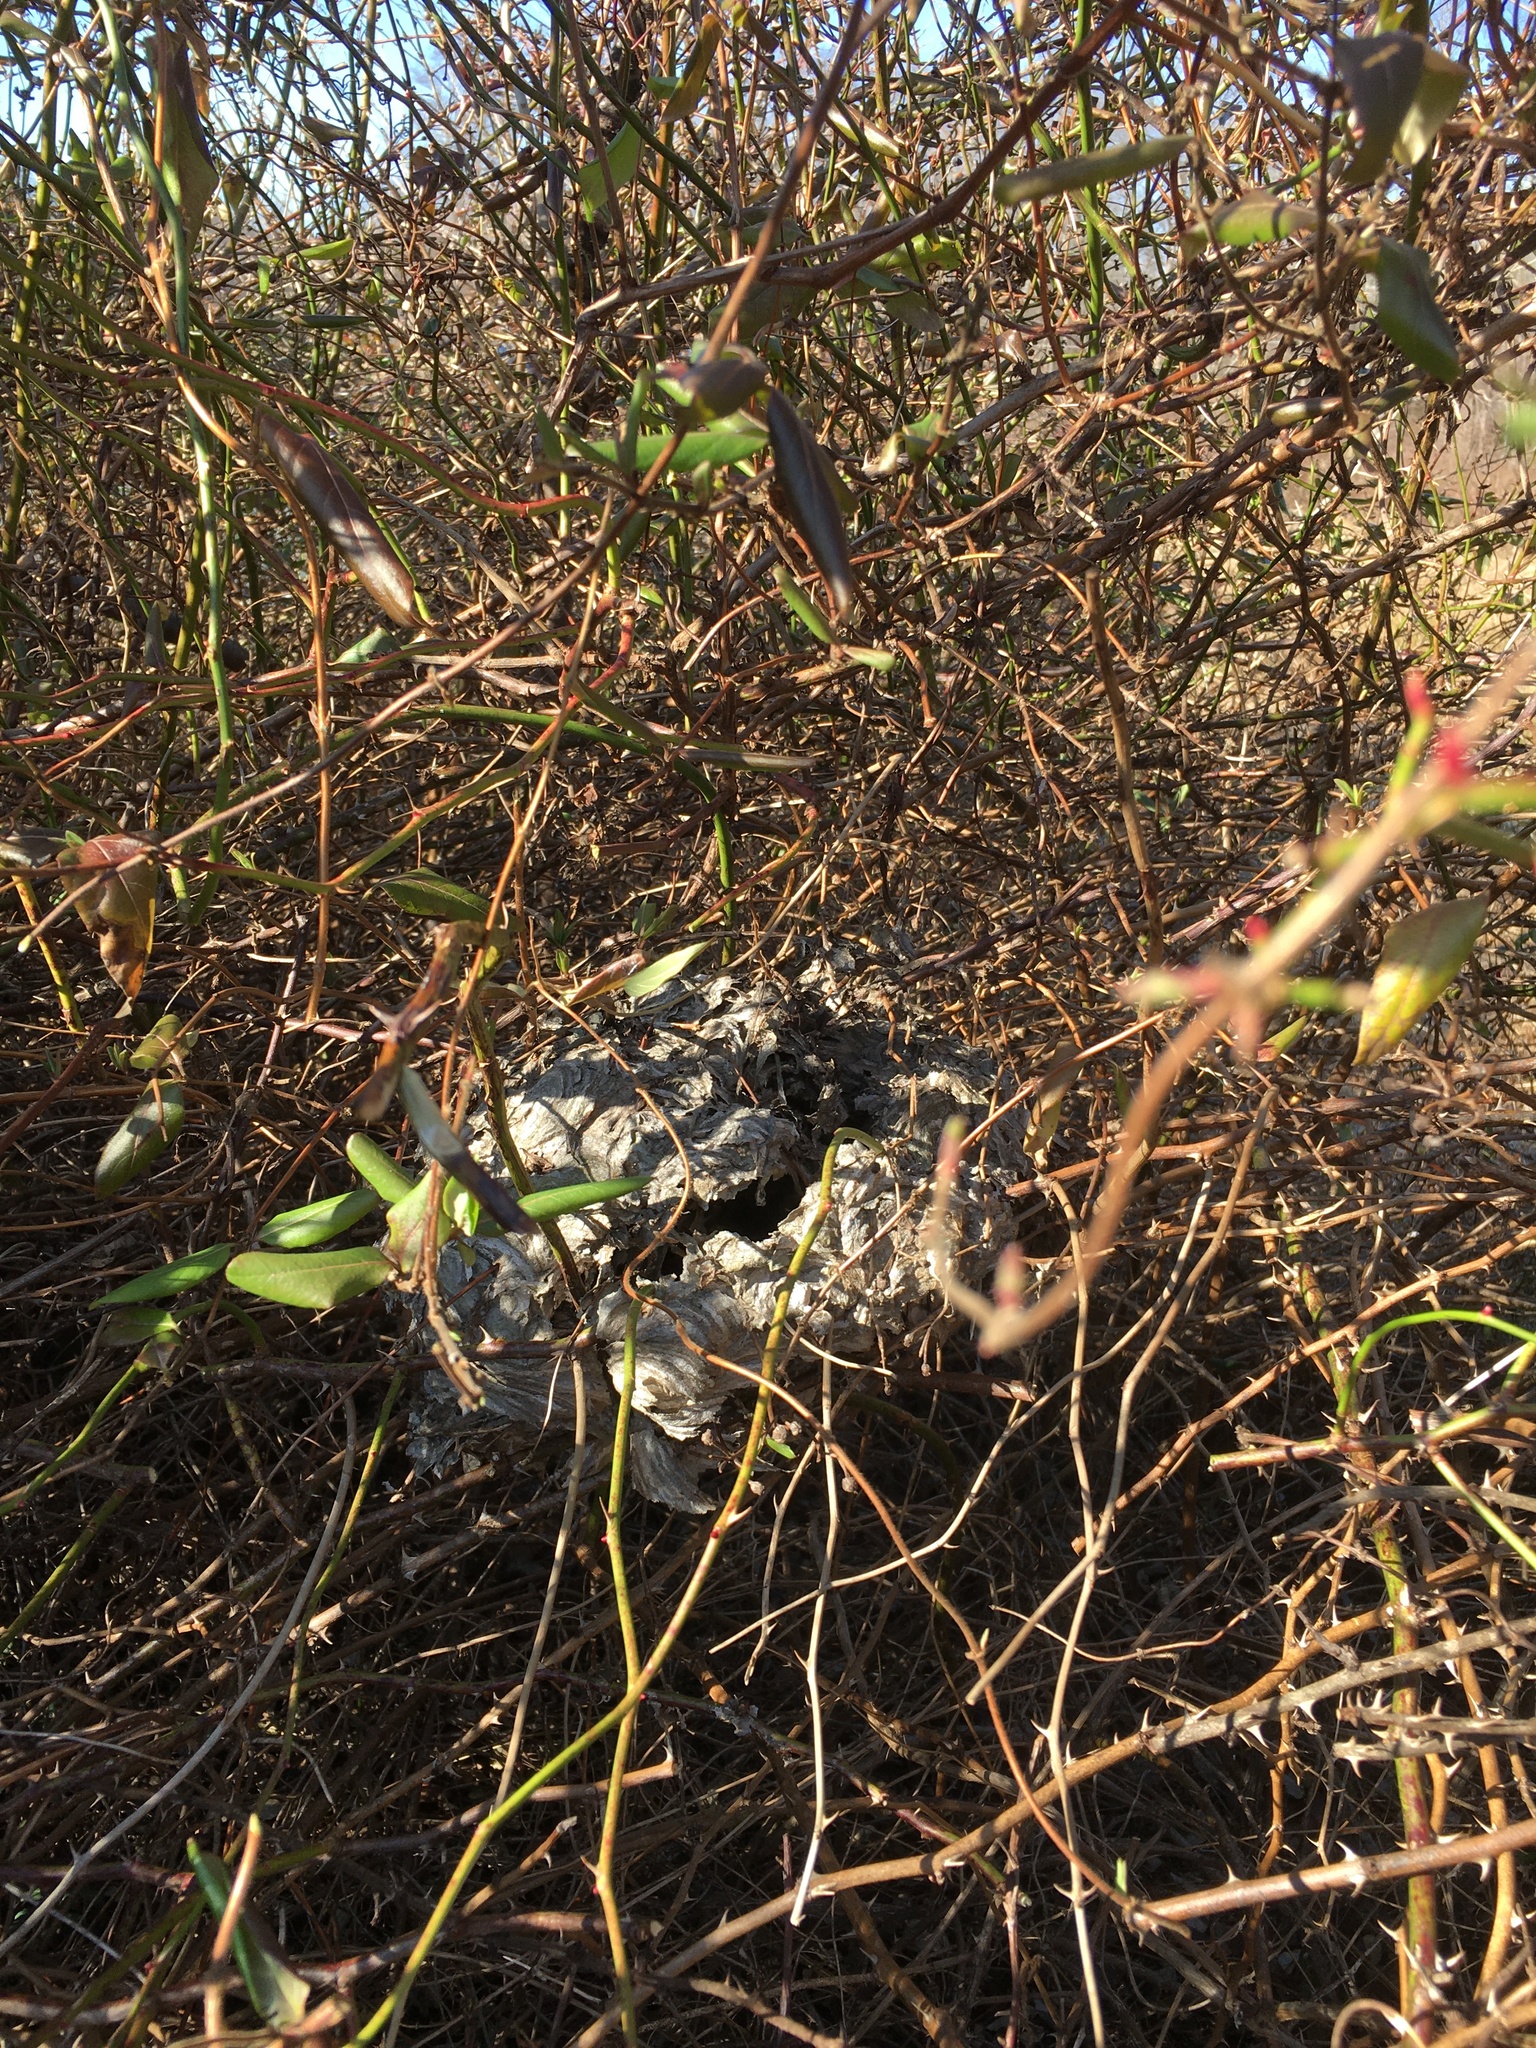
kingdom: Animalia
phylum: Arthropoda
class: Insecta
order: Hymenoptera
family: Vespidae
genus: Dolichovespula
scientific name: Dolichovespula
